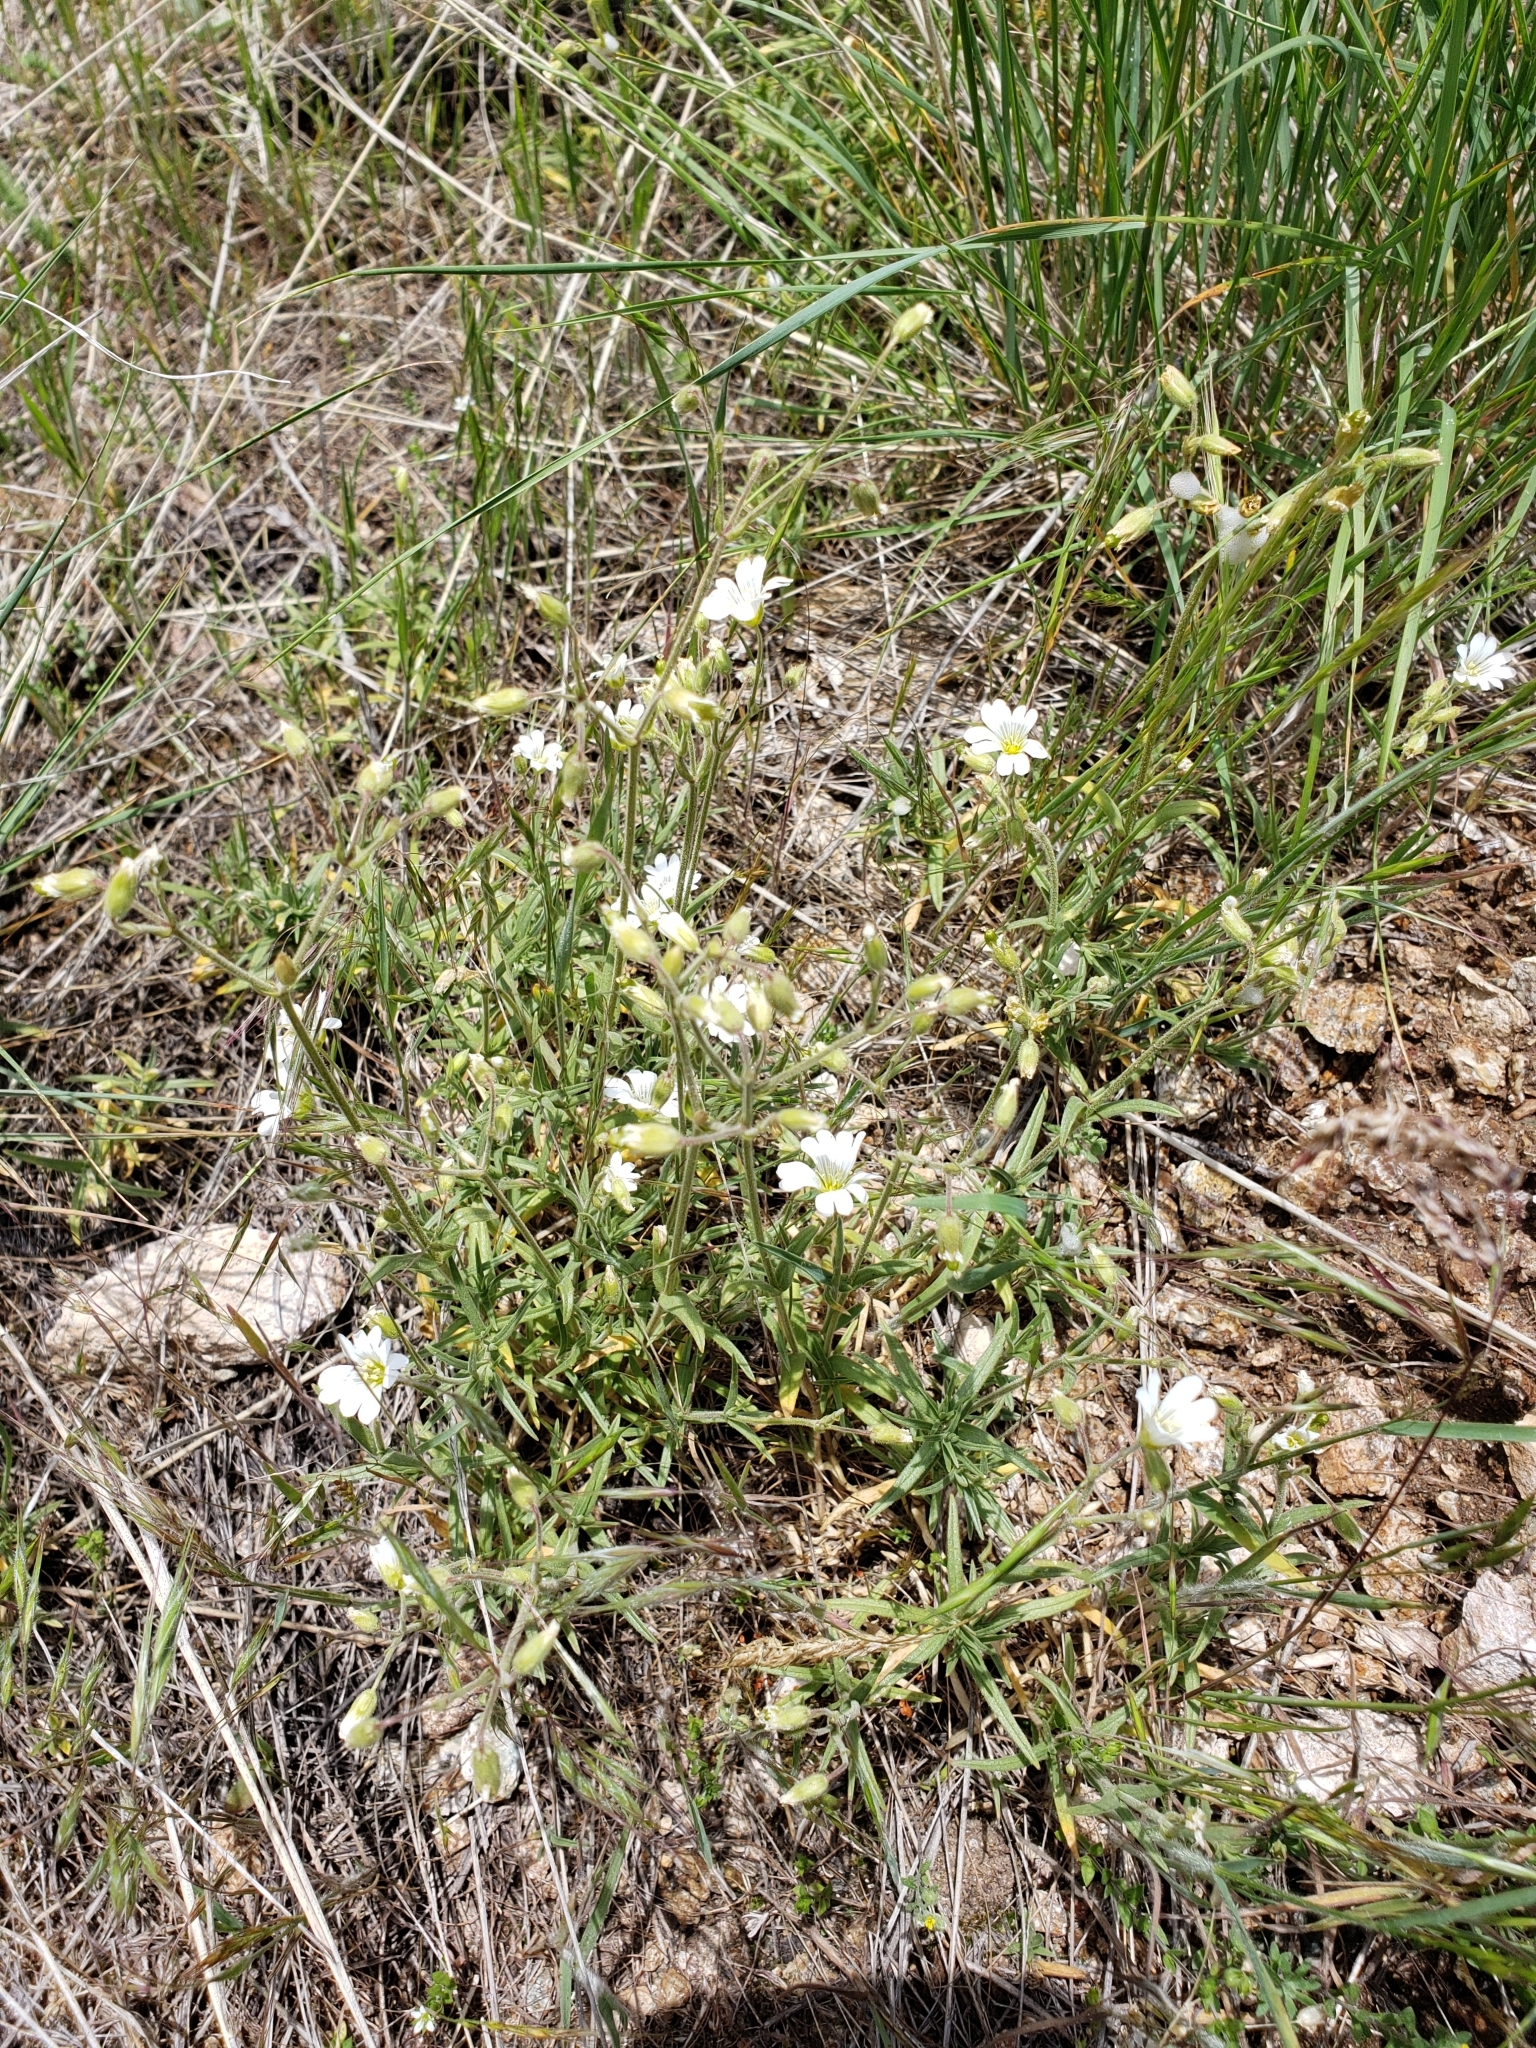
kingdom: Plantae
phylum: Tracheophyta
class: Magnoliopsida
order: Caryophyllales
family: Caryophyllaceae
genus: Cerastium
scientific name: Cerastium arvense
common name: Field mouse-ear
